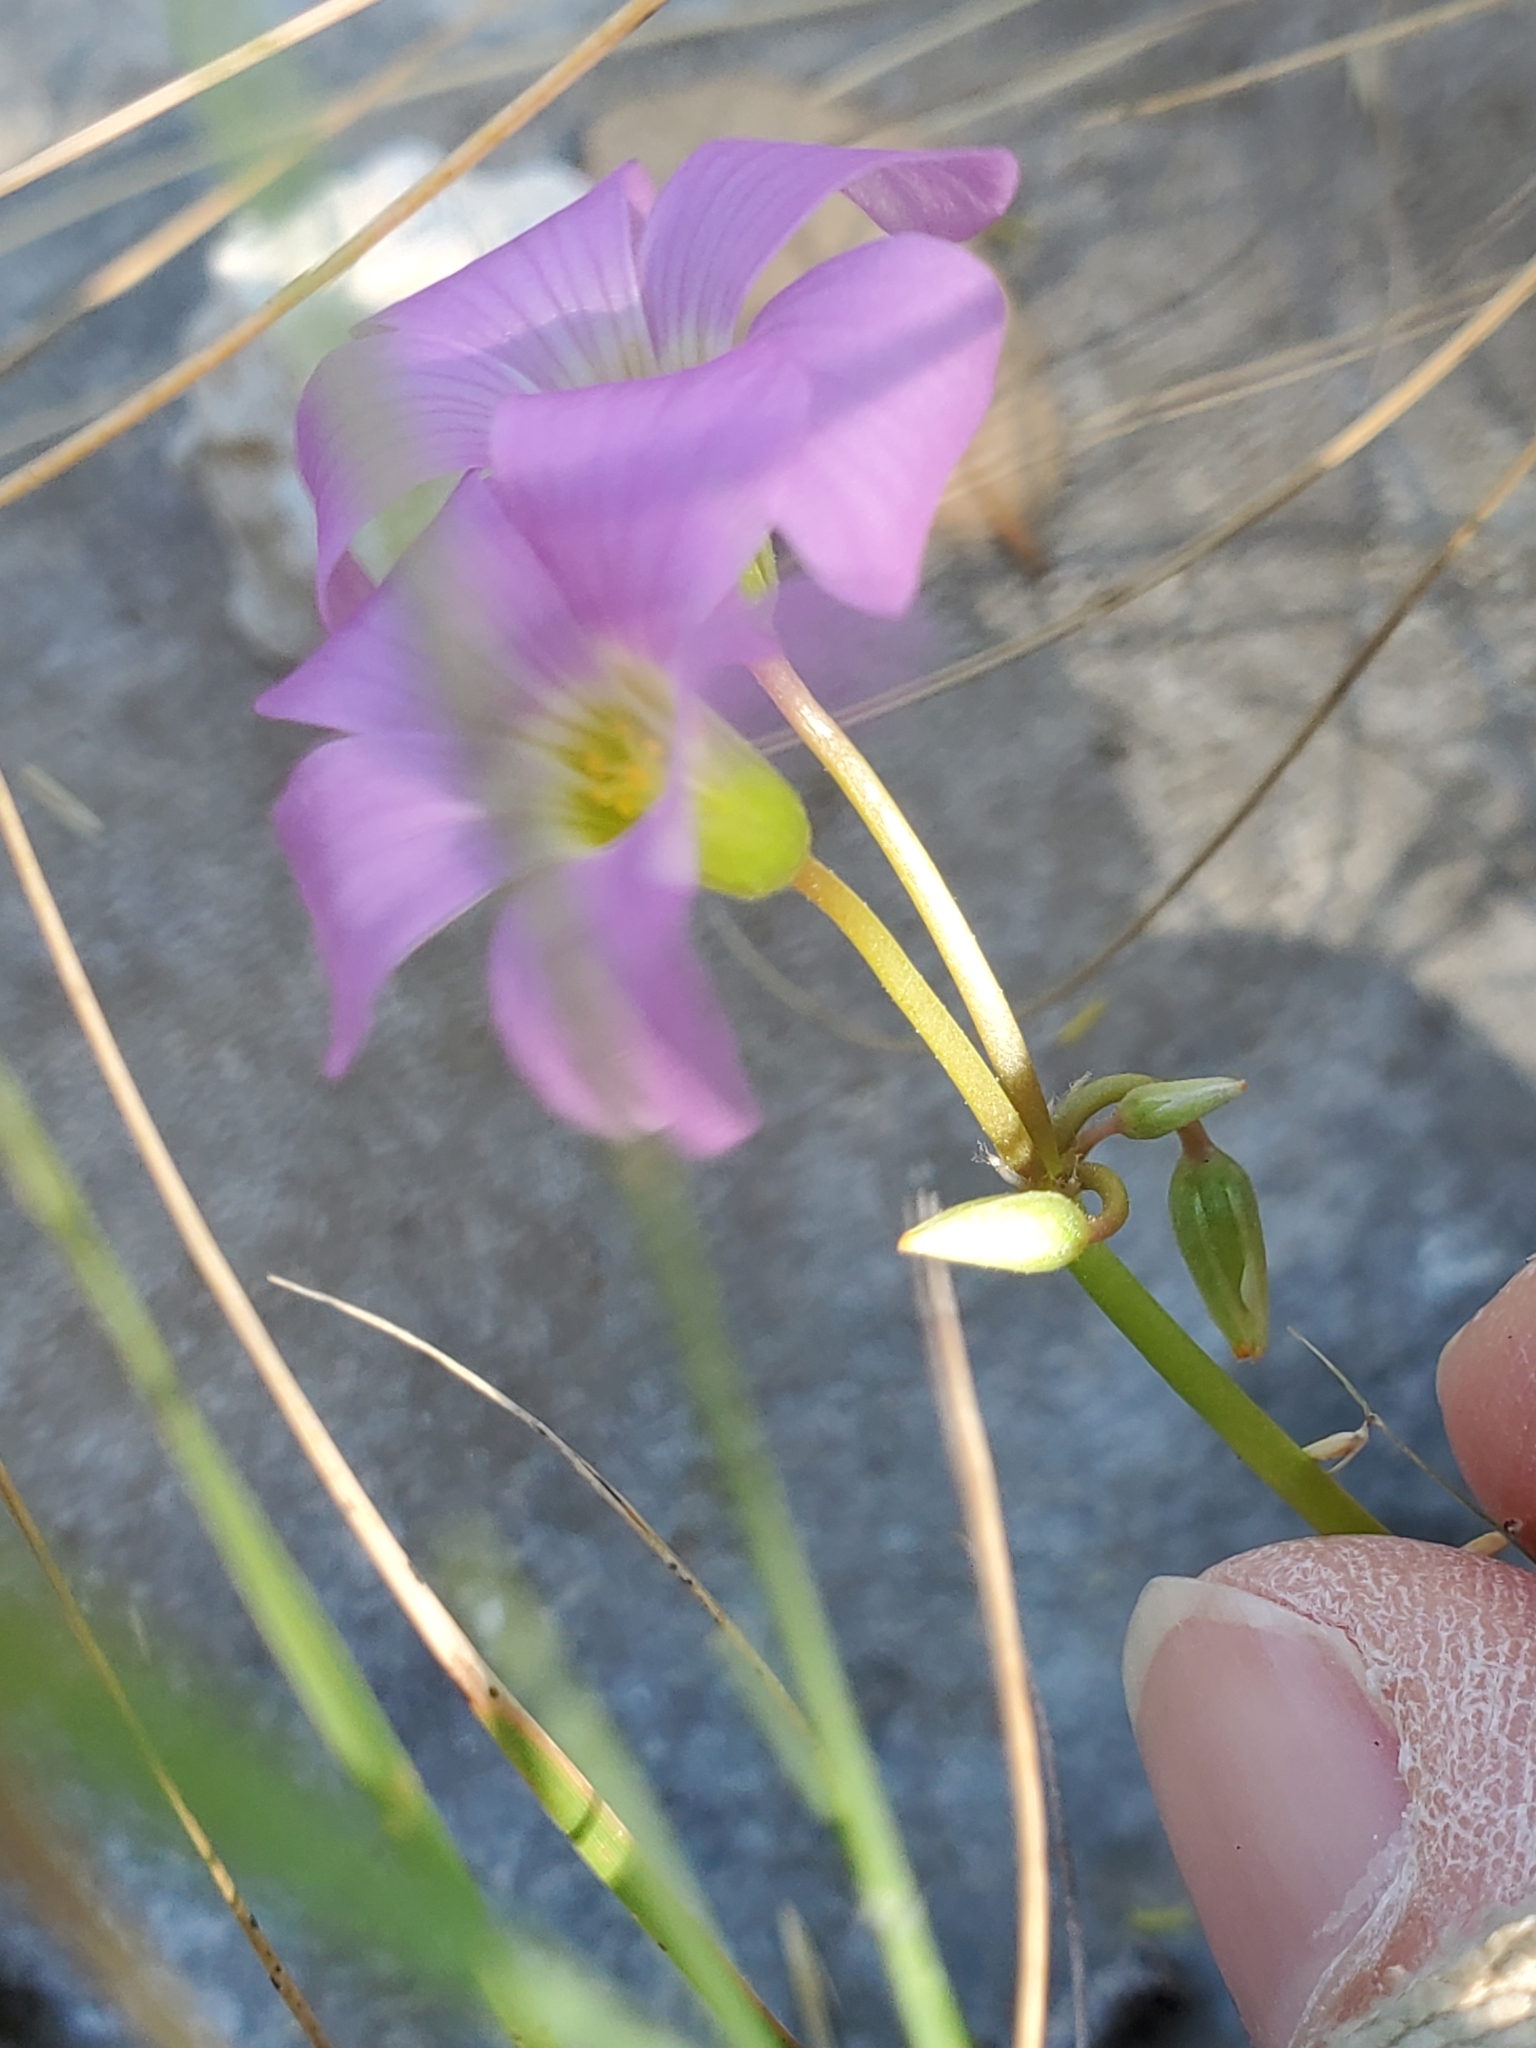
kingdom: Plantae
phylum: Tracheophyta
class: Magnoliopsida
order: Oxalidales
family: Oxalidaceae
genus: Oxalis
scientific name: Oxalis drummondii
